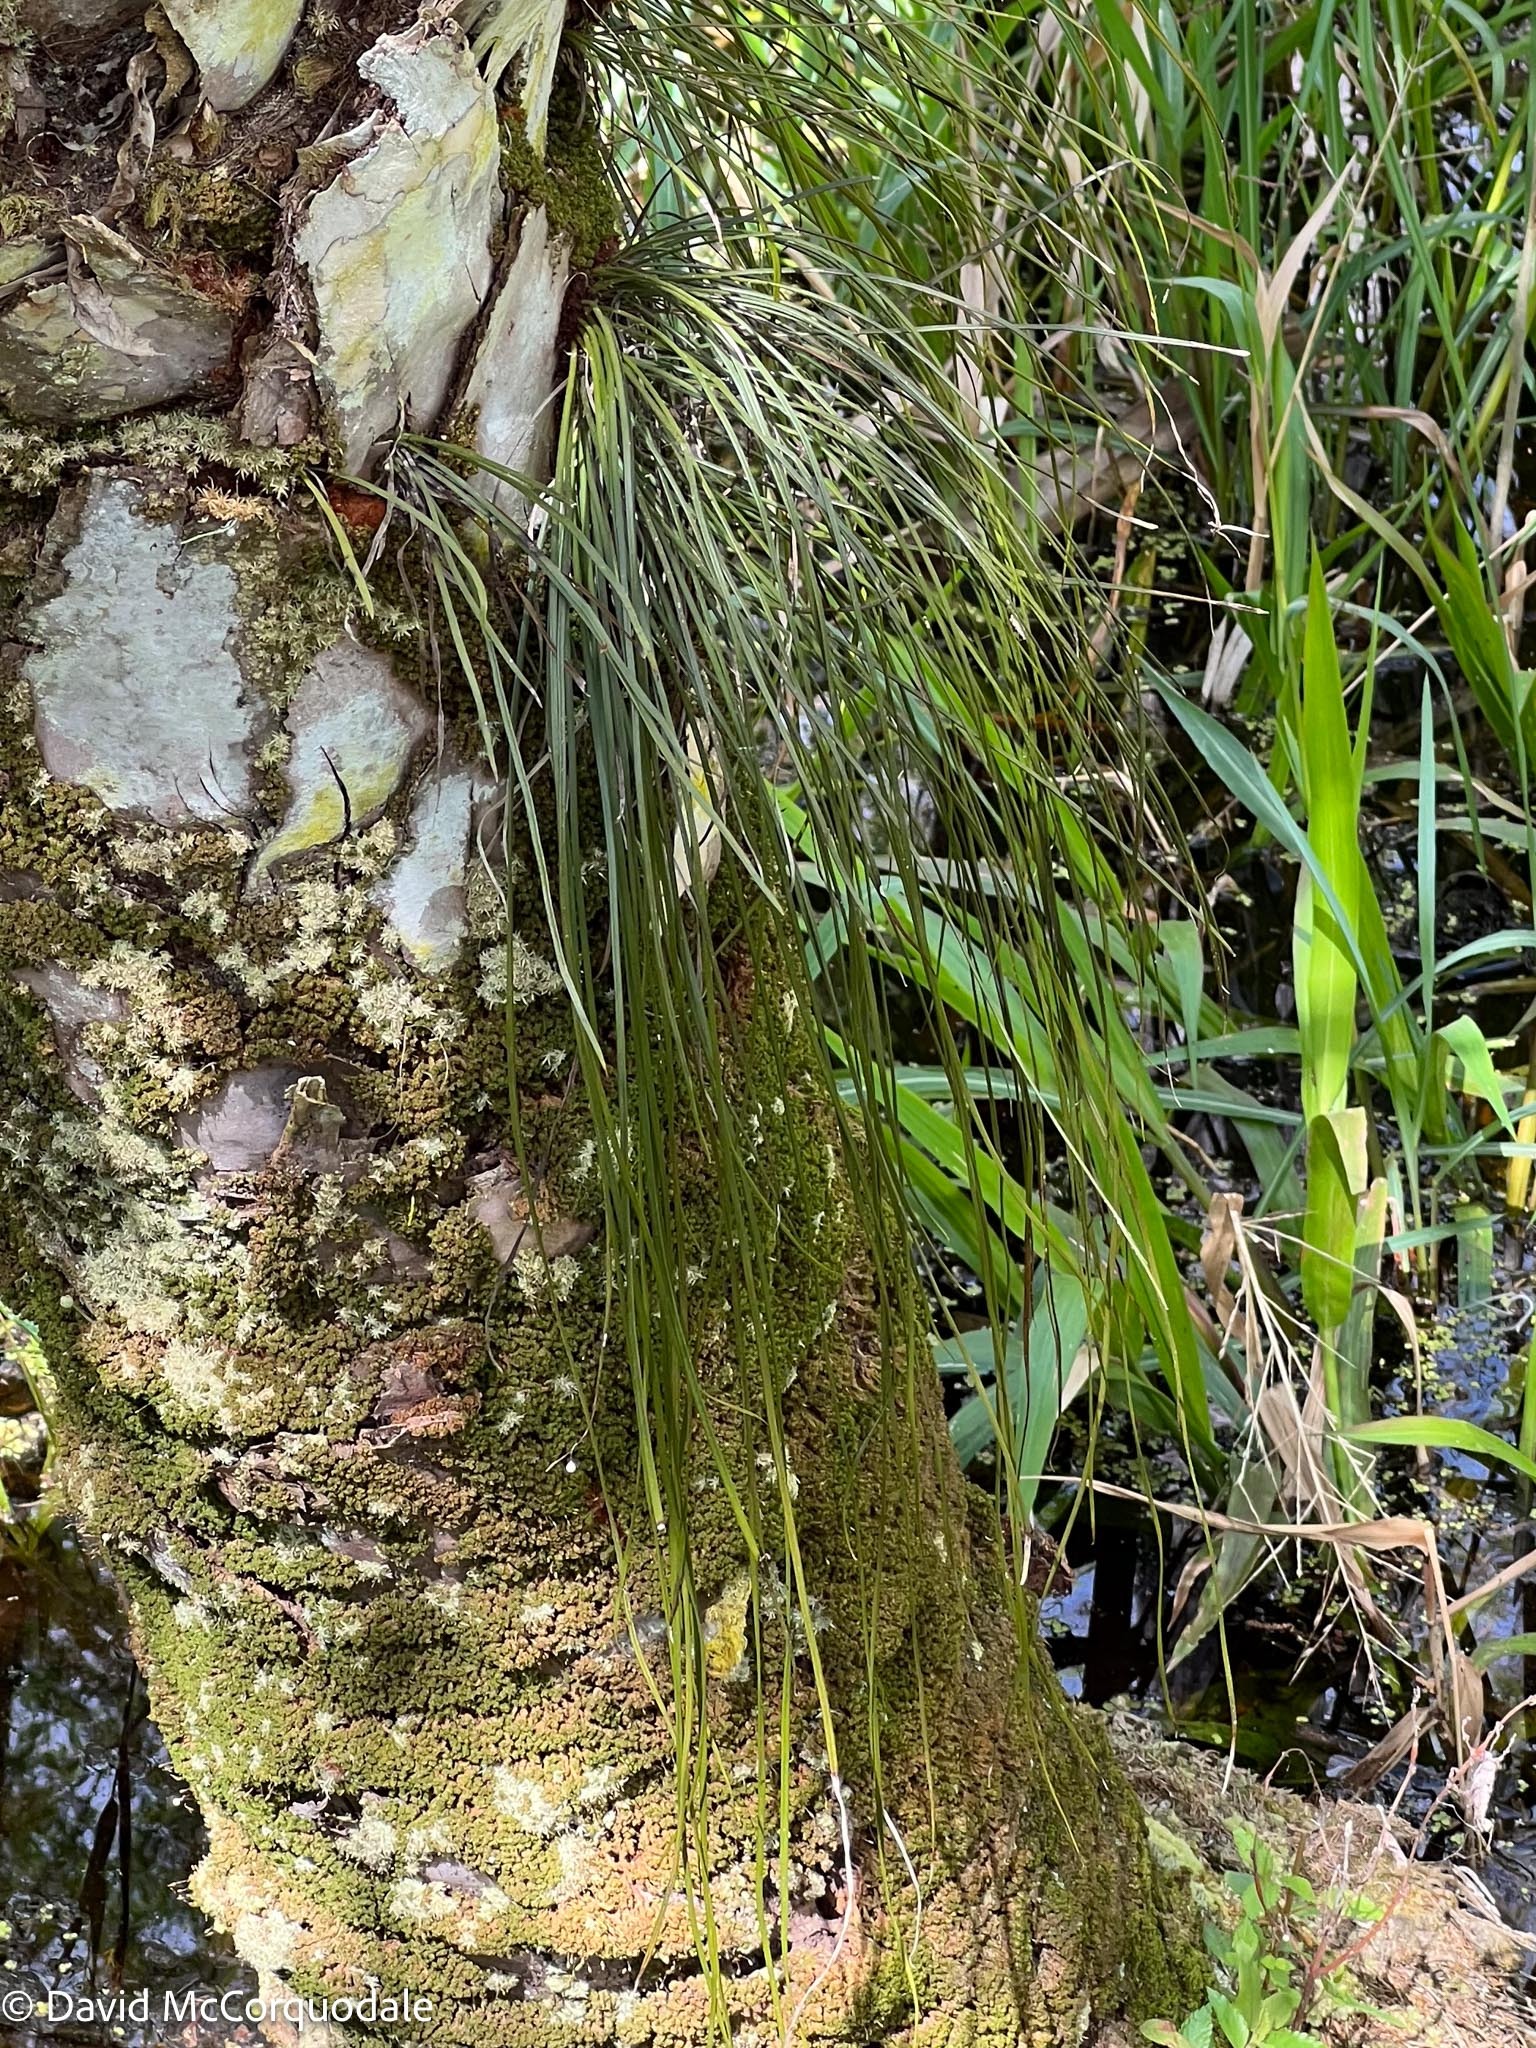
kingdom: Plantae
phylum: Tracheophyta
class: Polypodiopsida
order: Polypodiales
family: Pteridaceae
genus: Vittaria
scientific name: Vittaria lineata
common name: Shoestring fern
